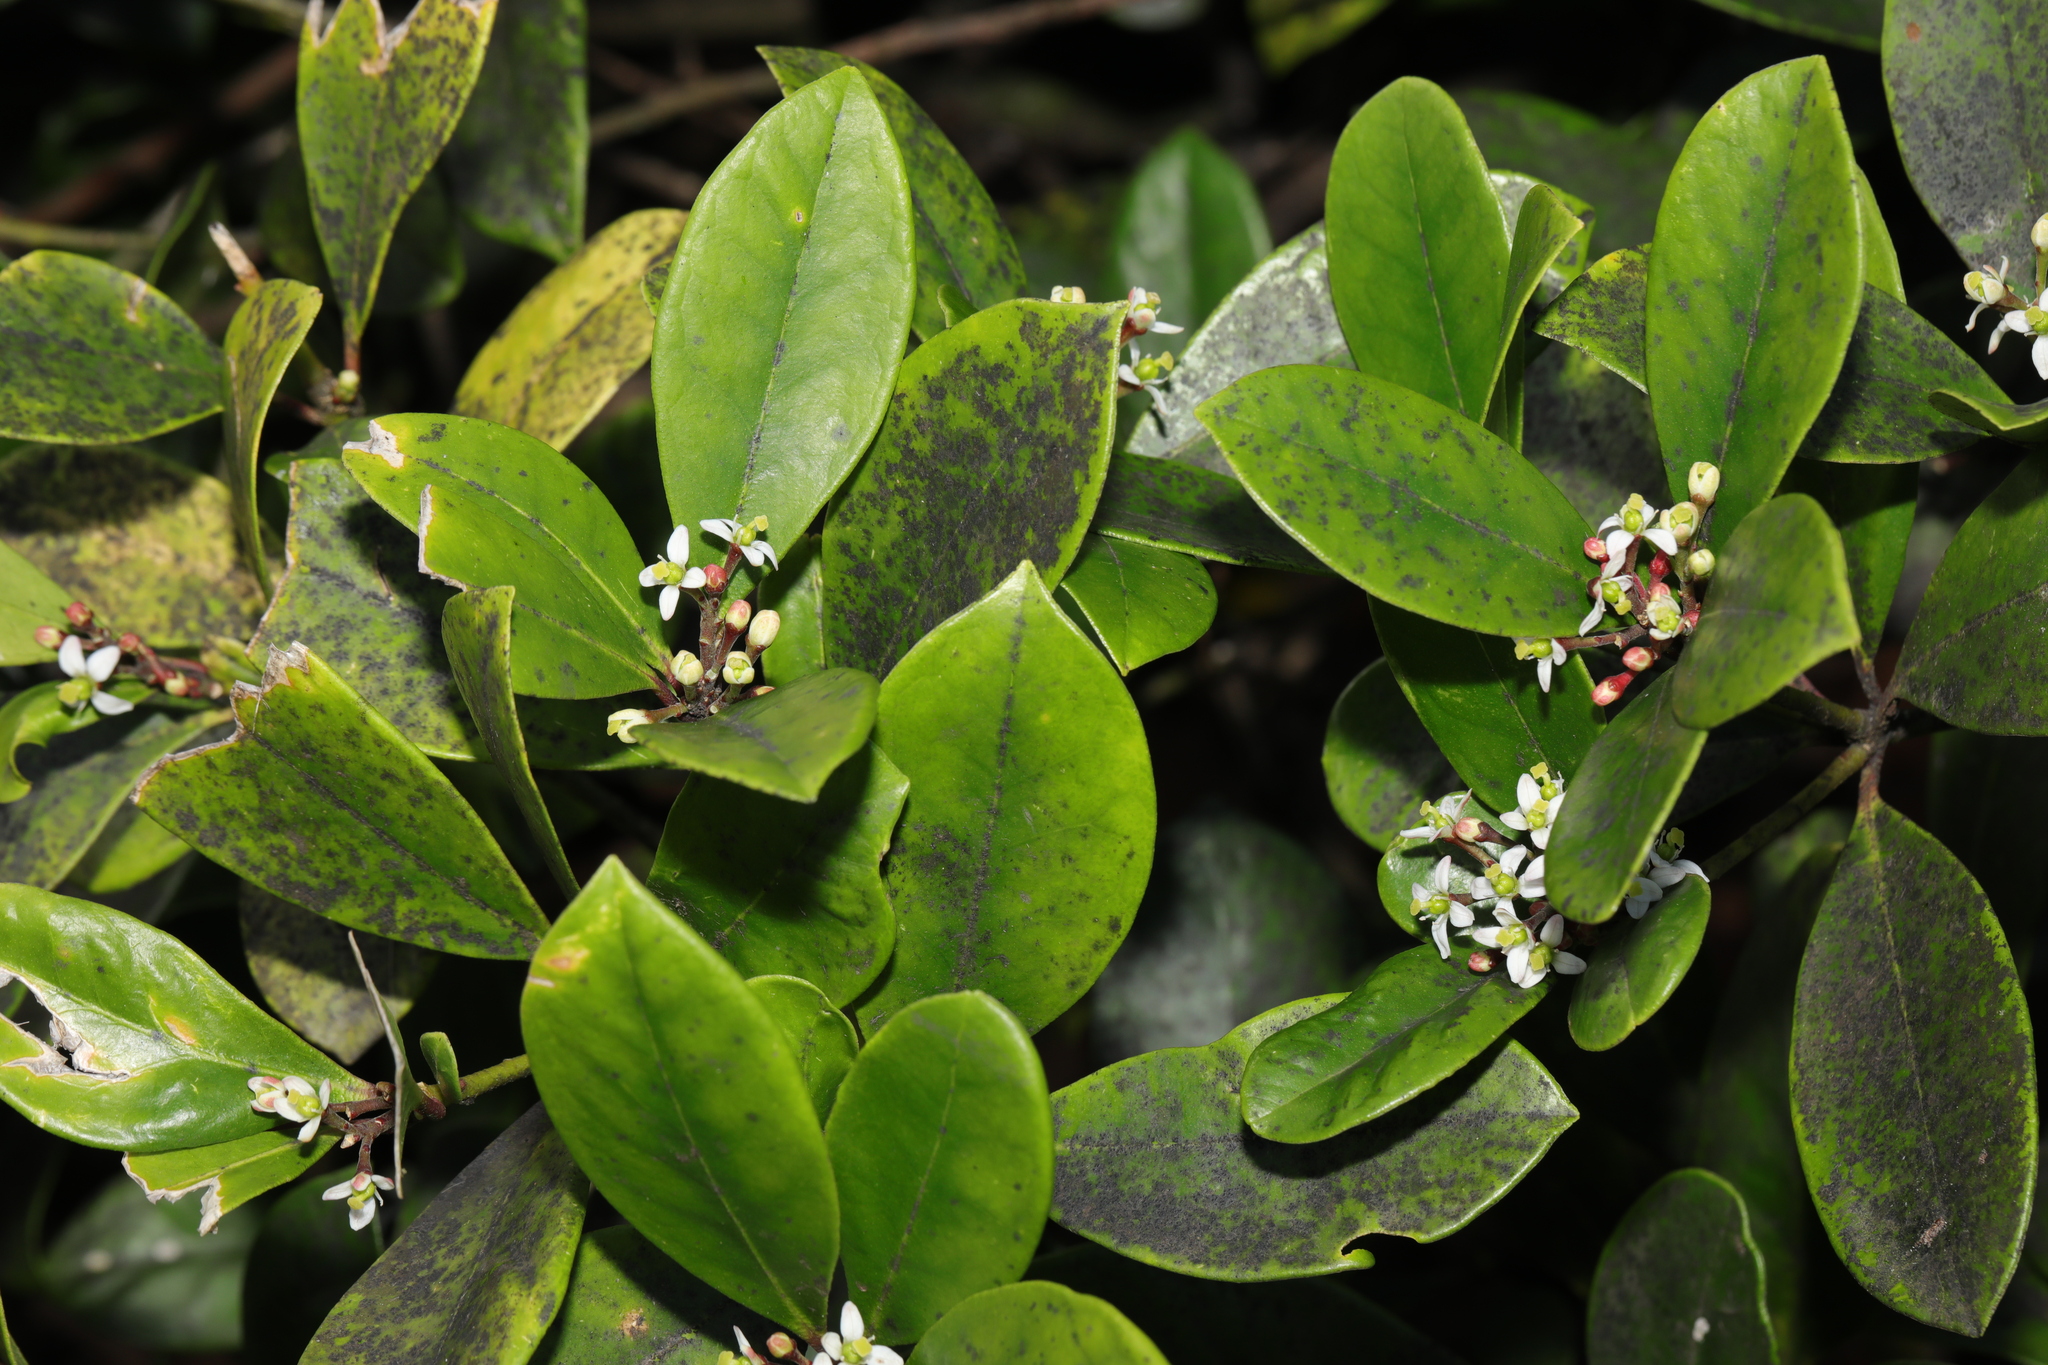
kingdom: Plantae
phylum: Tracheophyta
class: Magnoliopsida
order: Sapindales
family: Rutaceae
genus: Skimmia
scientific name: Skimmia japonica
